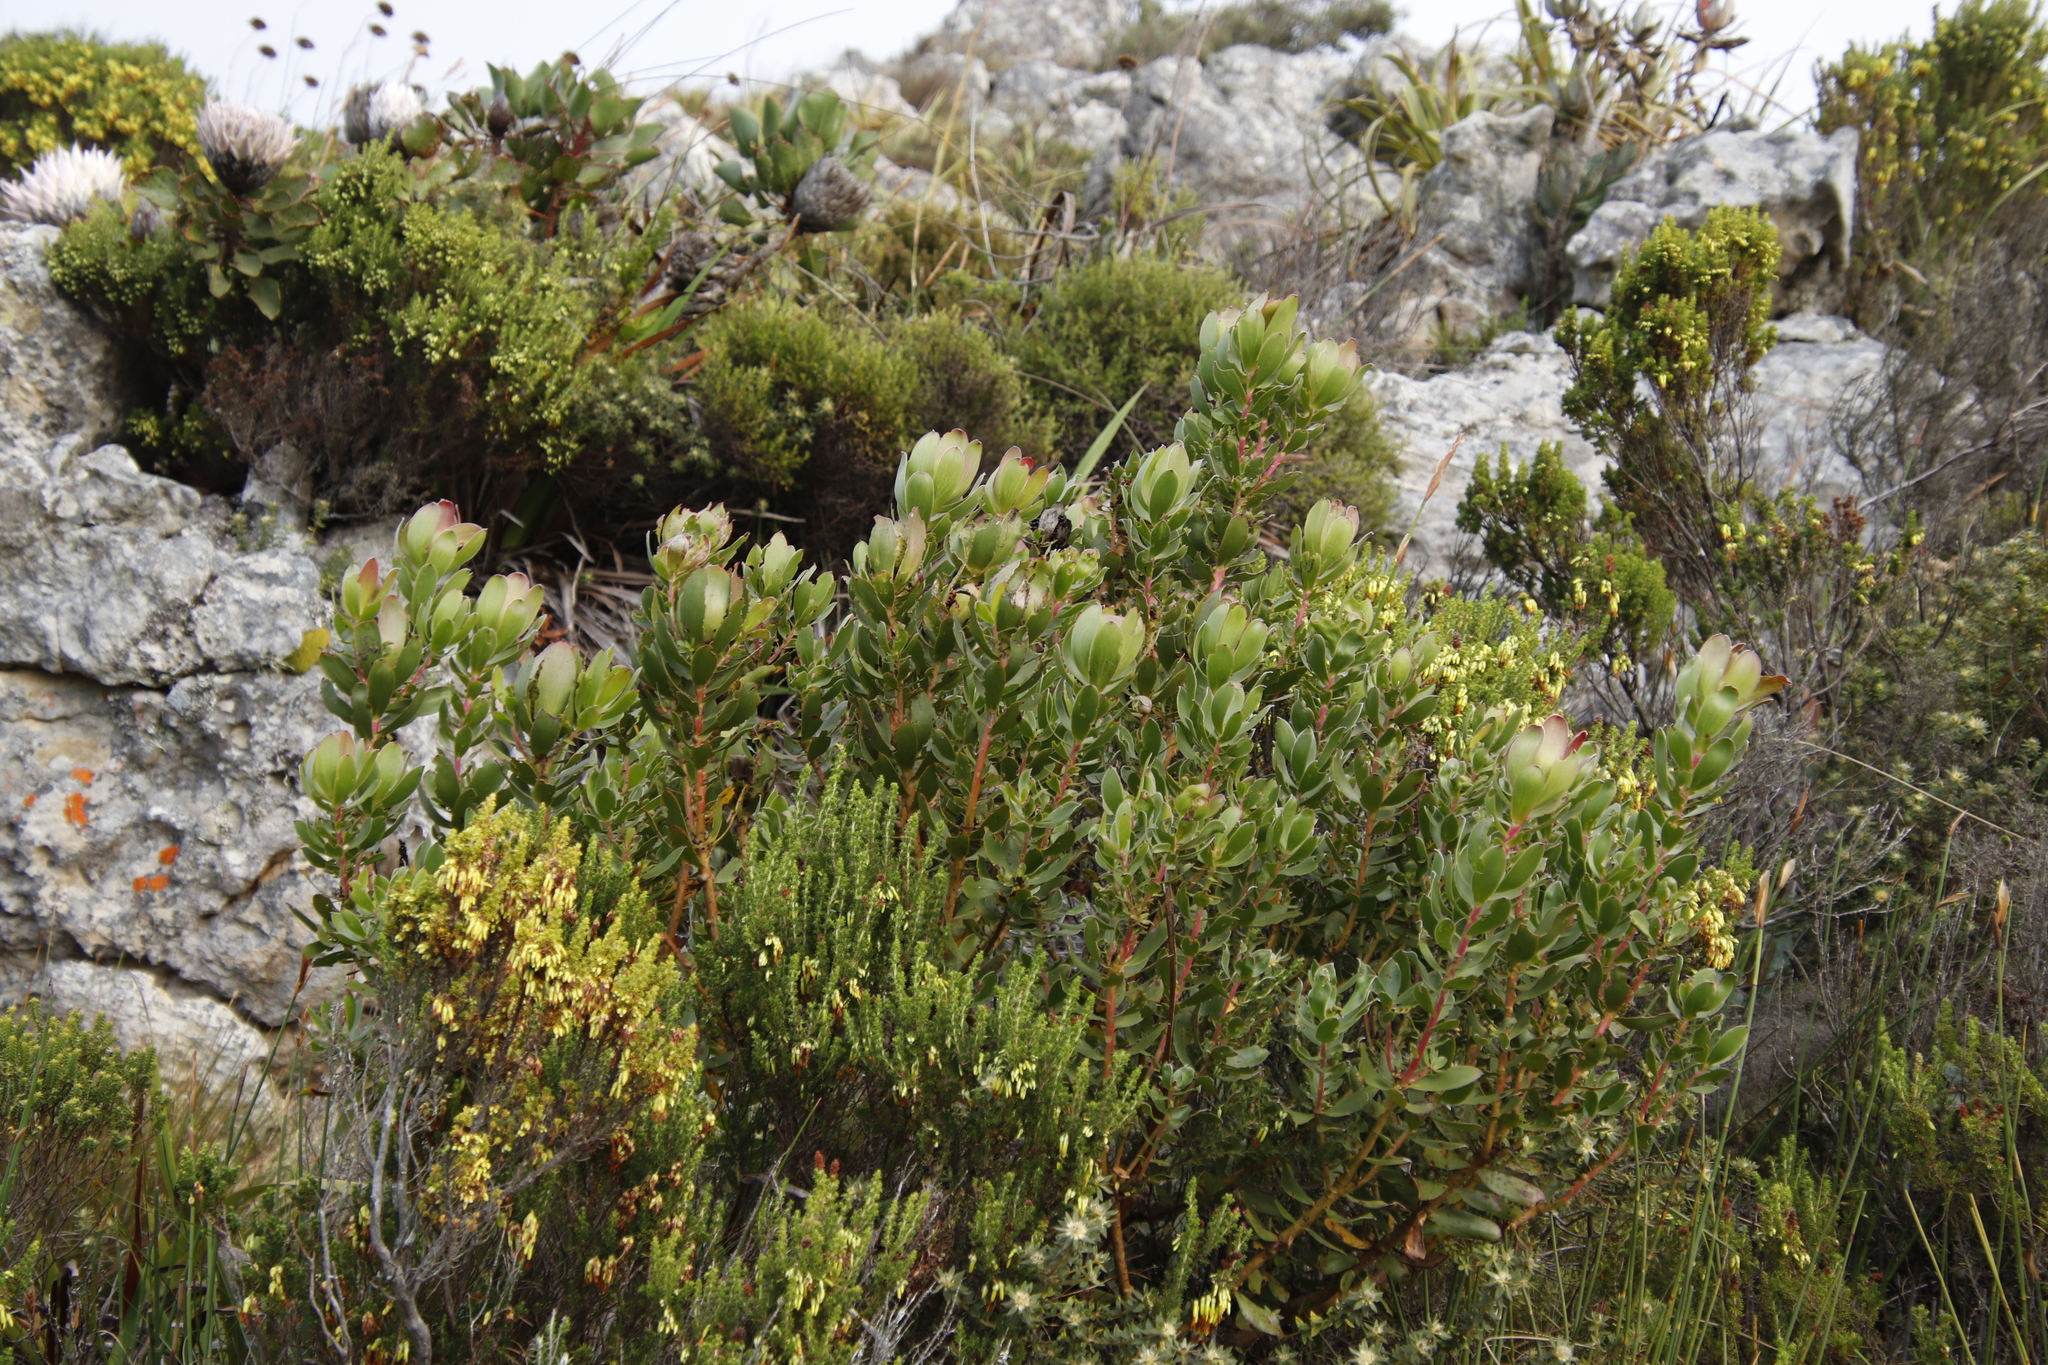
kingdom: Plantae
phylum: Tracheophyta
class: Magnoliopsida
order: Proteales
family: Proteaceae
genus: Leucadendron
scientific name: Leucadendron strobilinum
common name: Mountain rose
